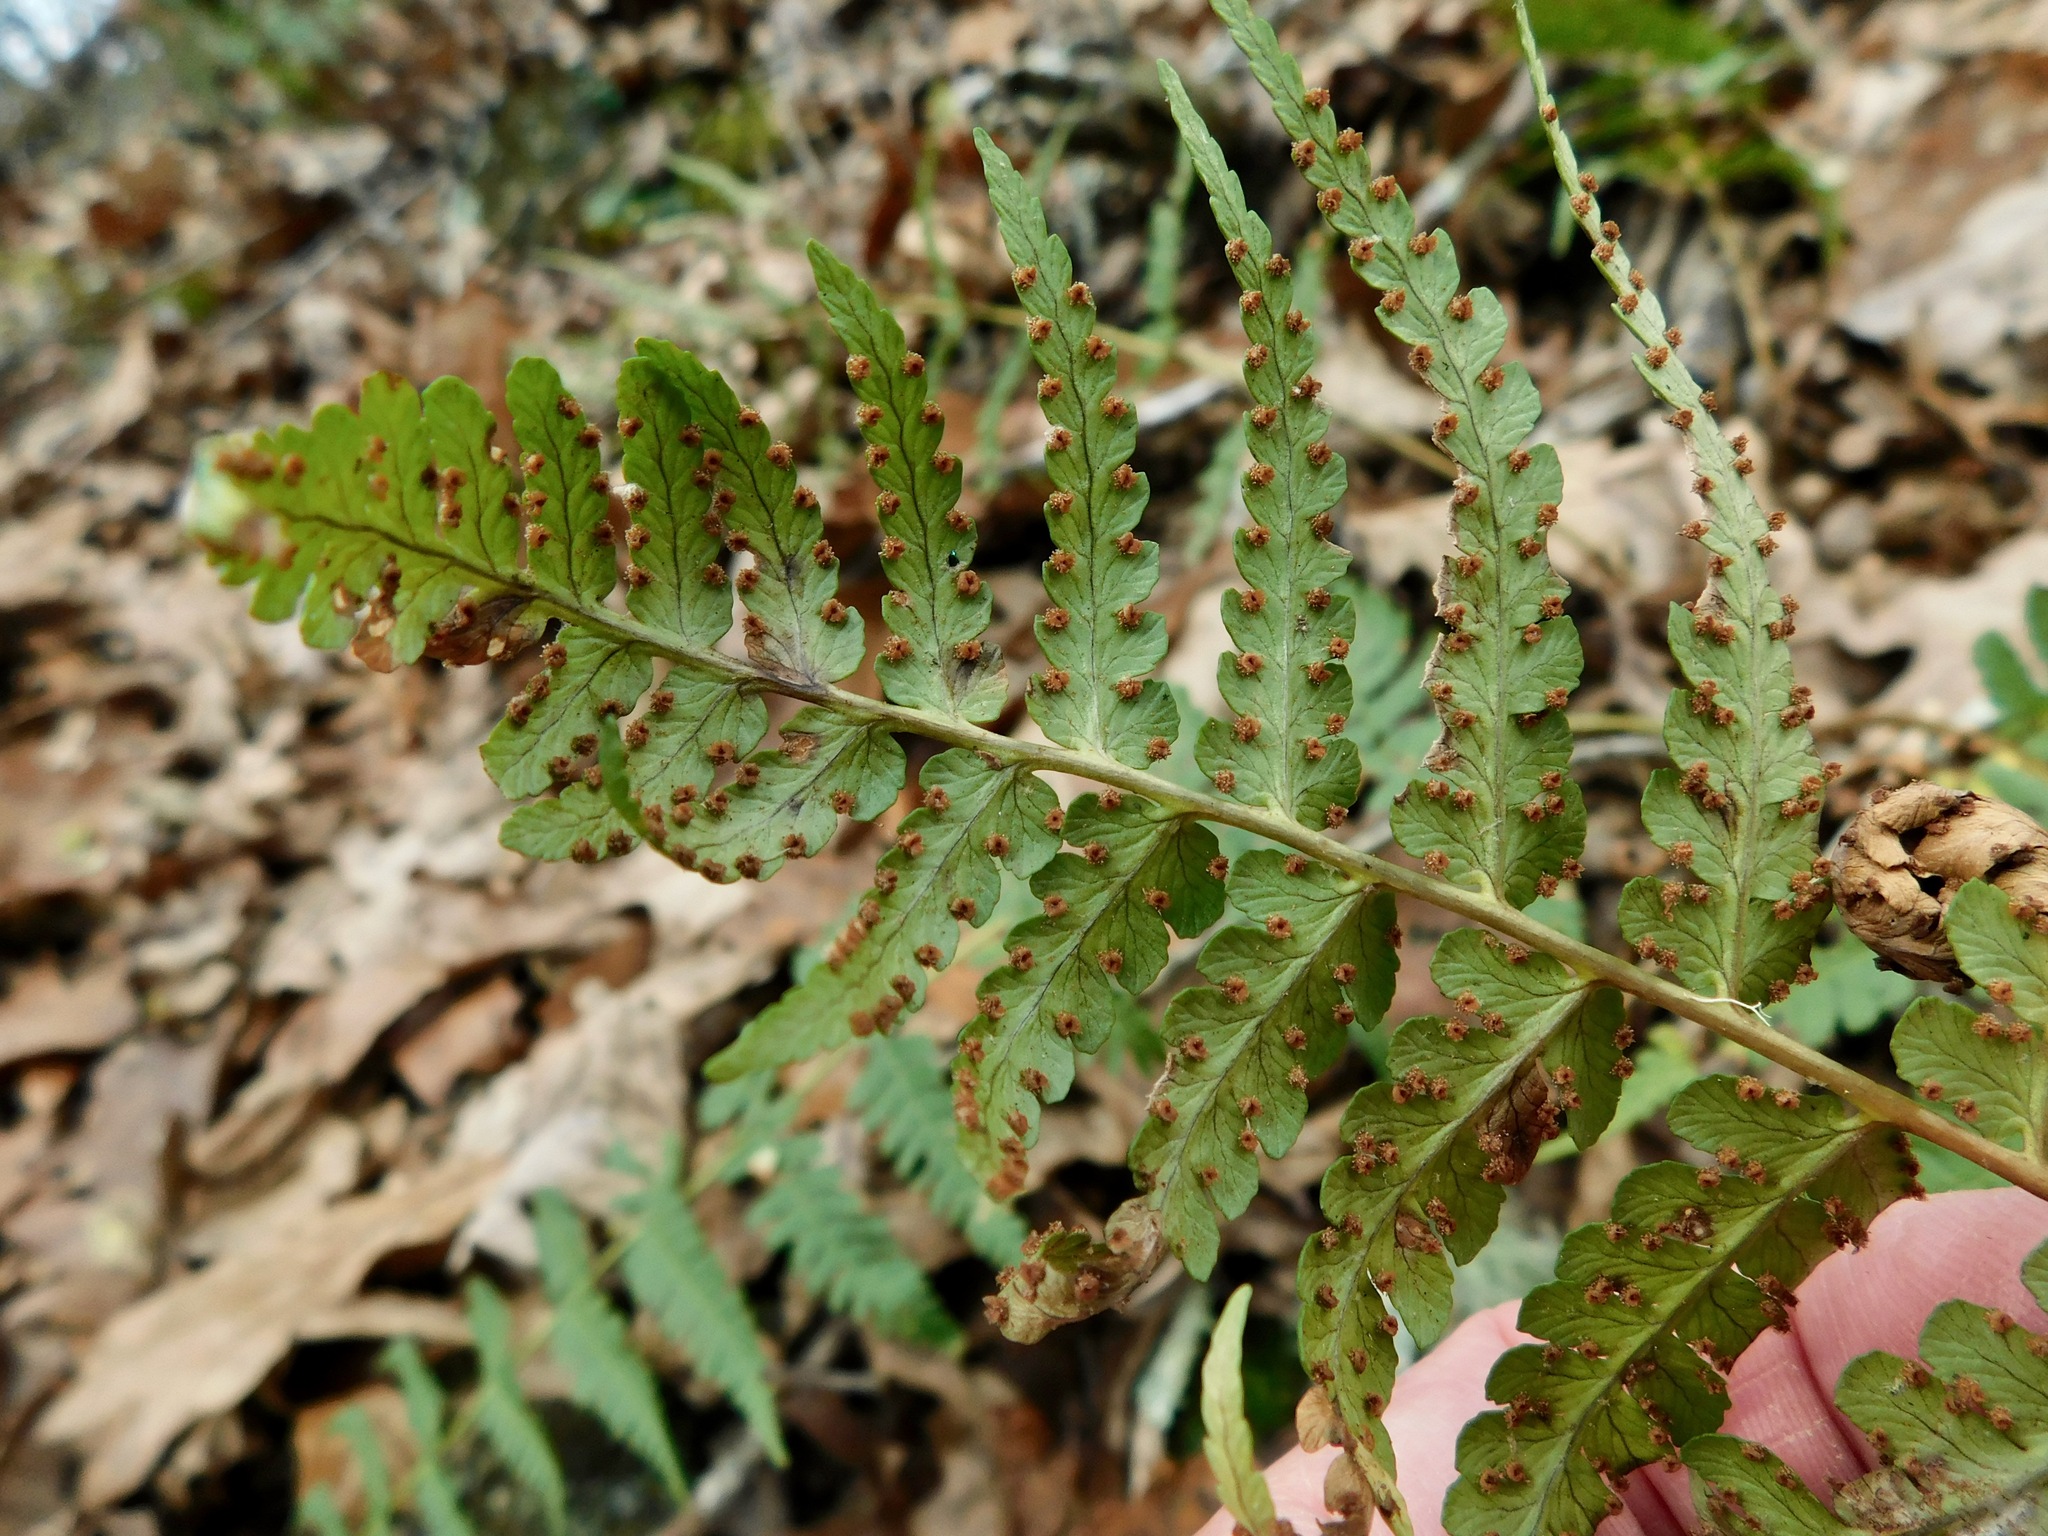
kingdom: Plantae
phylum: Tracheophyta
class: Polypodiopsida
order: Polypodiales
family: Dryopteridaceae
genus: Dryopteris
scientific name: Dryopteris marginalis
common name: Marginal wood fern
